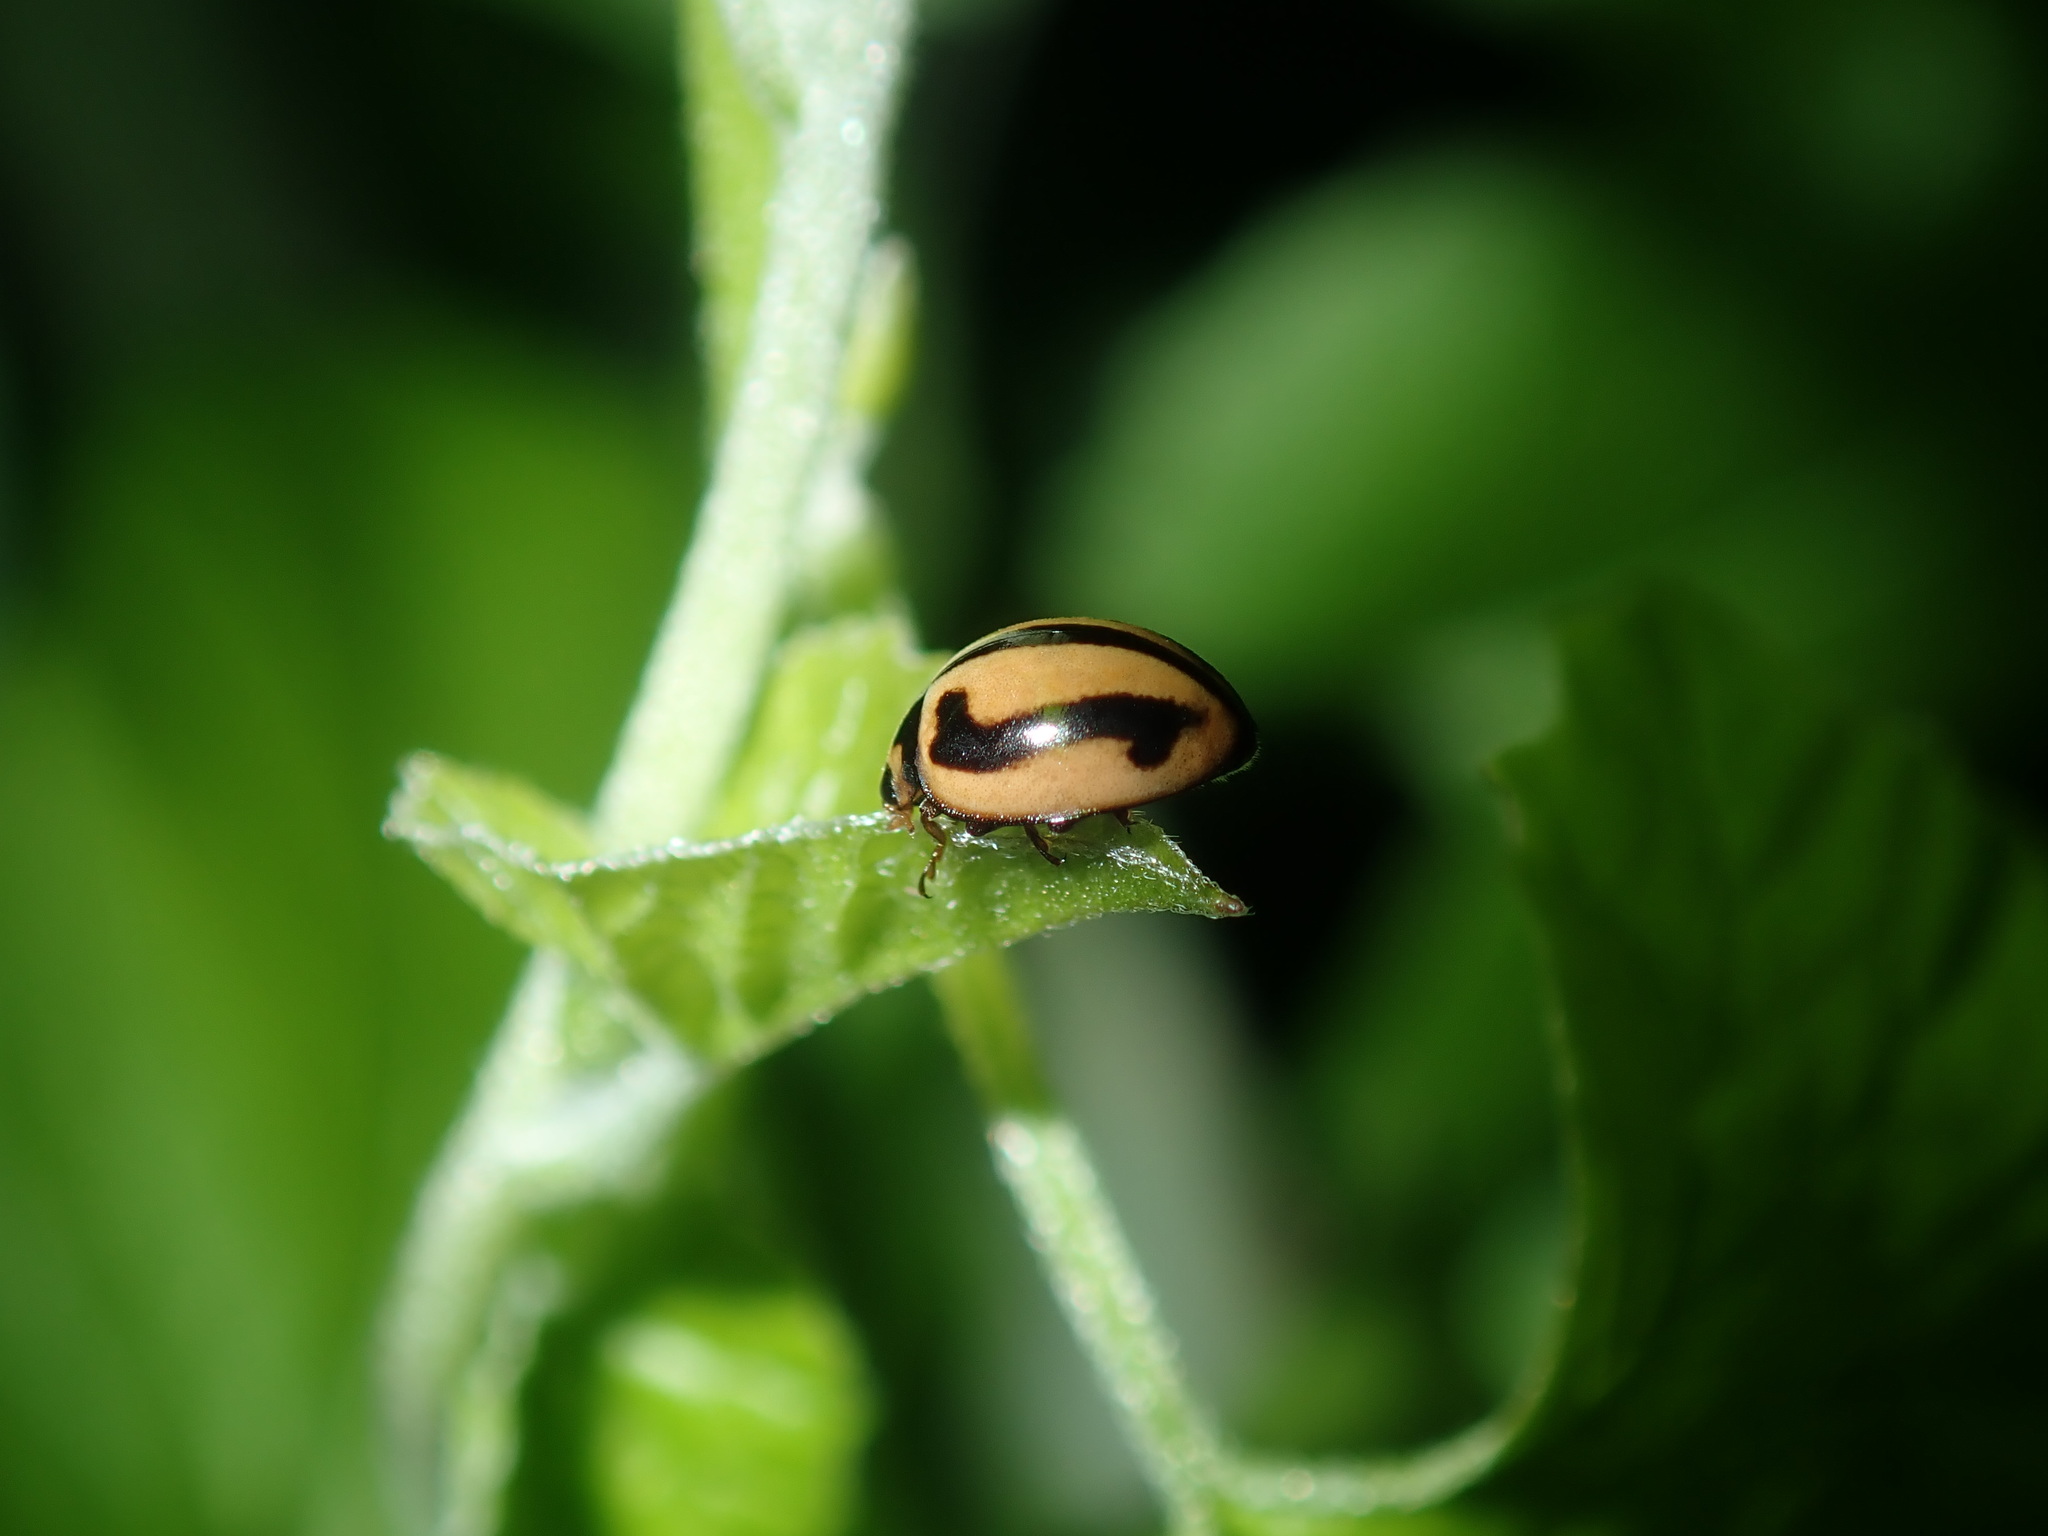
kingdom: Animalia
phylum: Arthropoda
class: Insecta
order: Coleoptera
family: Coccinellidae
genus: Micraspis
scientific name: Micraspis frenata
